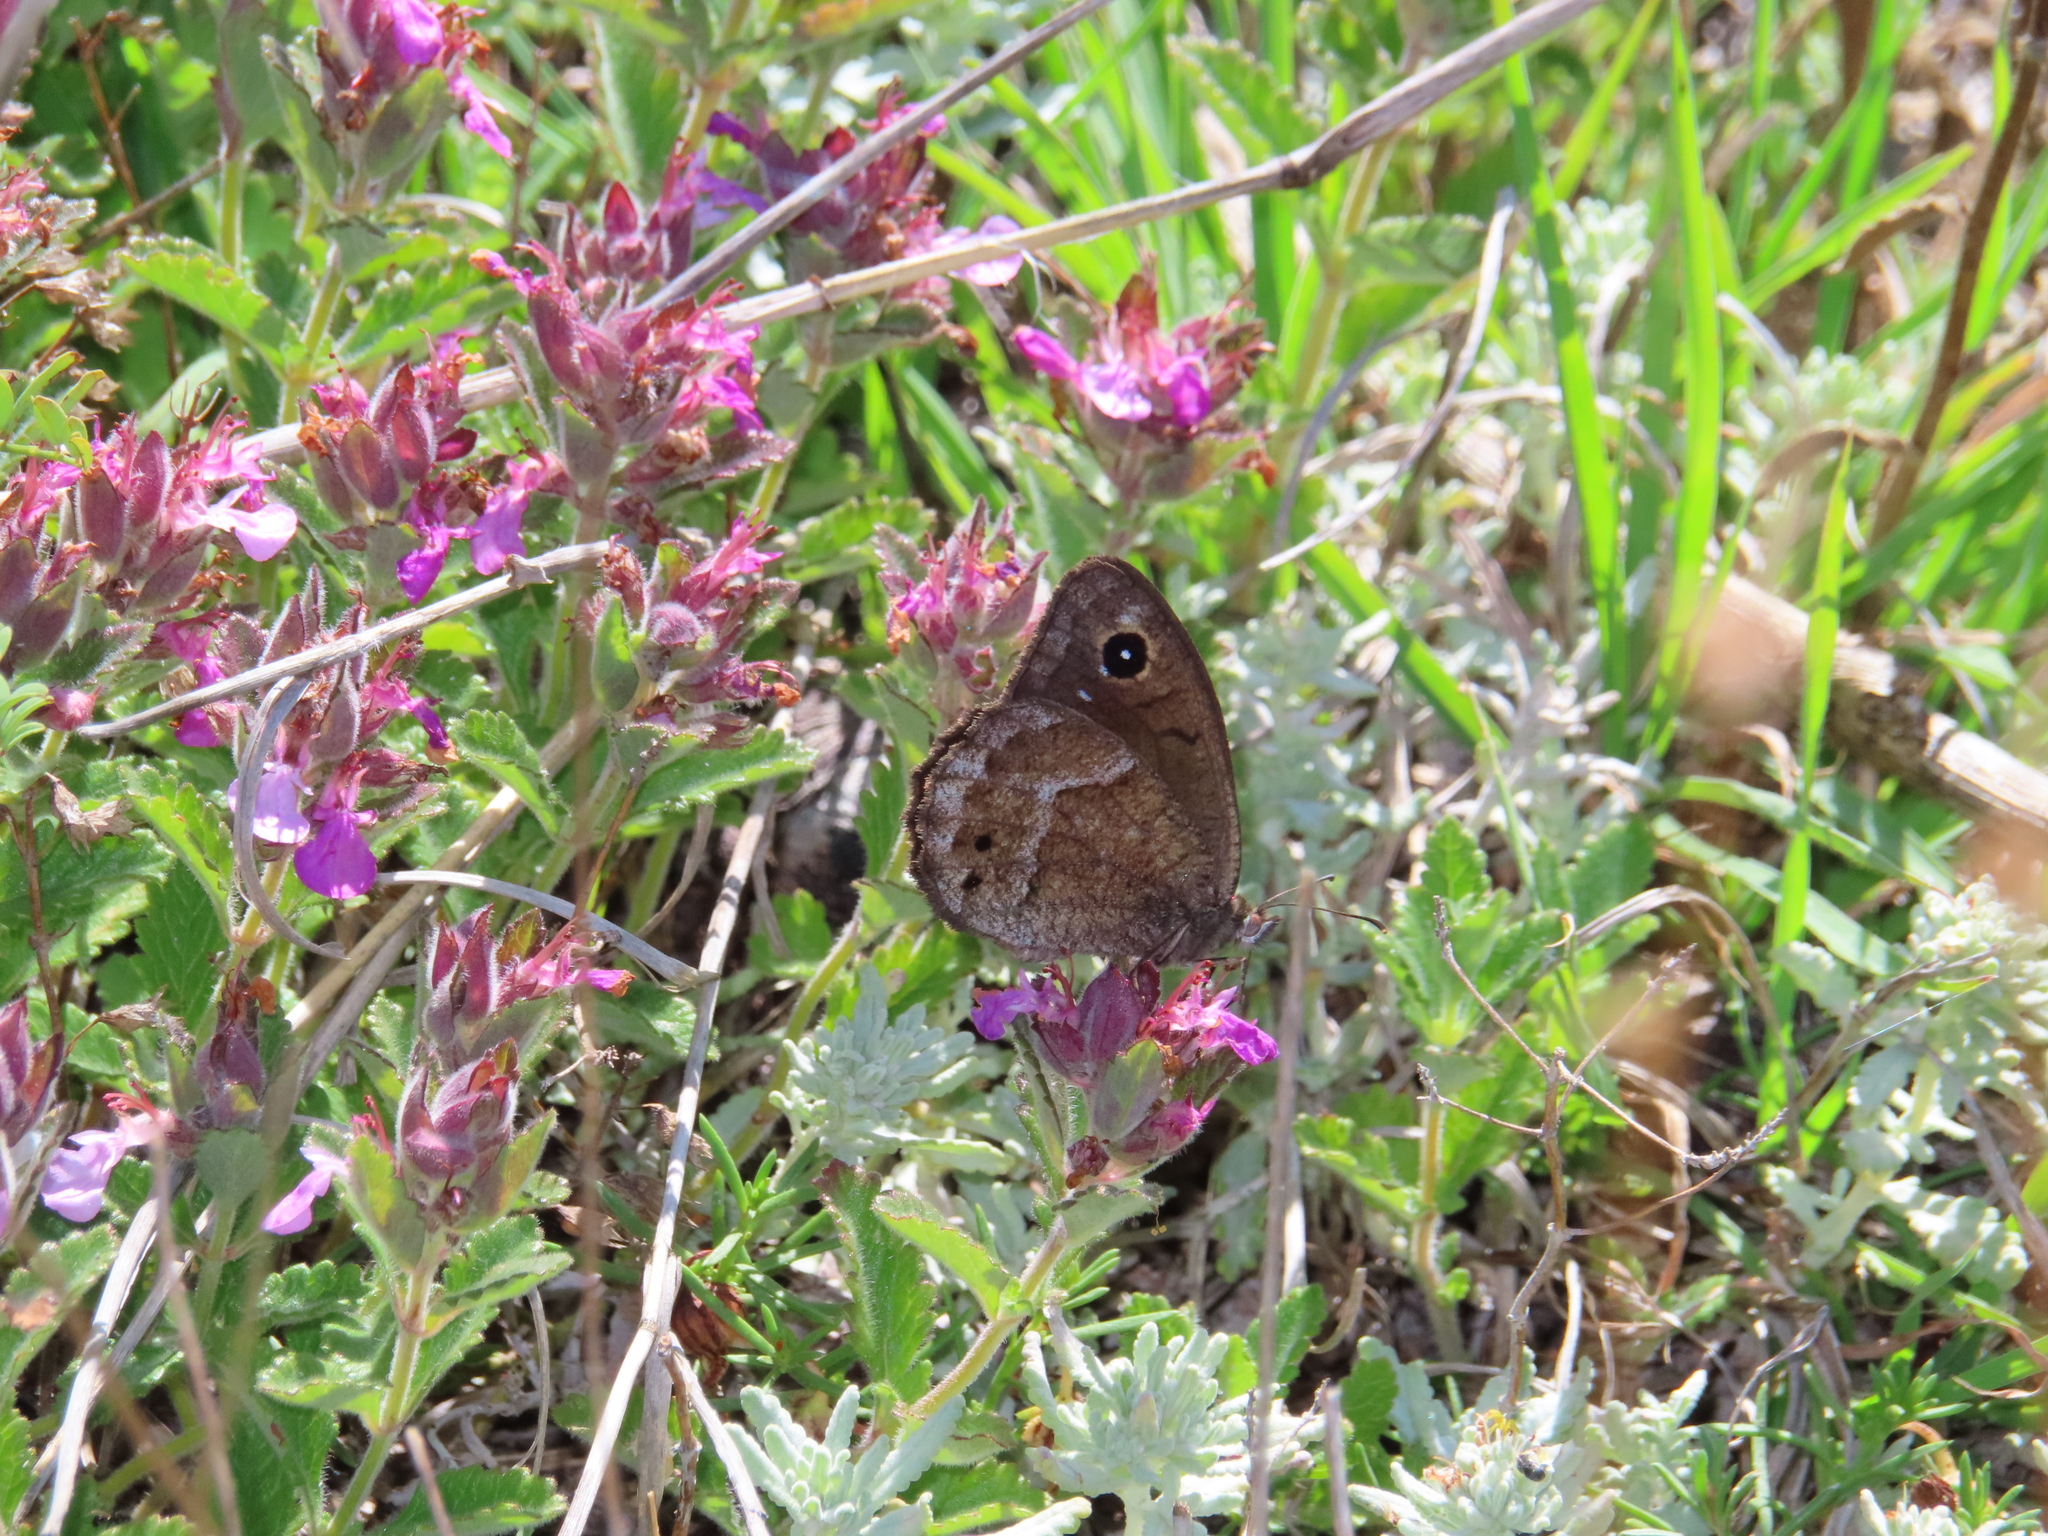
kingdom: Animalia
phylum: Arthropoda
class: Insecta
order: Lepidoptera
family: Nymphalidae
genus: Satyrus
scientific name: Satyrus ferula
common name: Great sooty satyr
